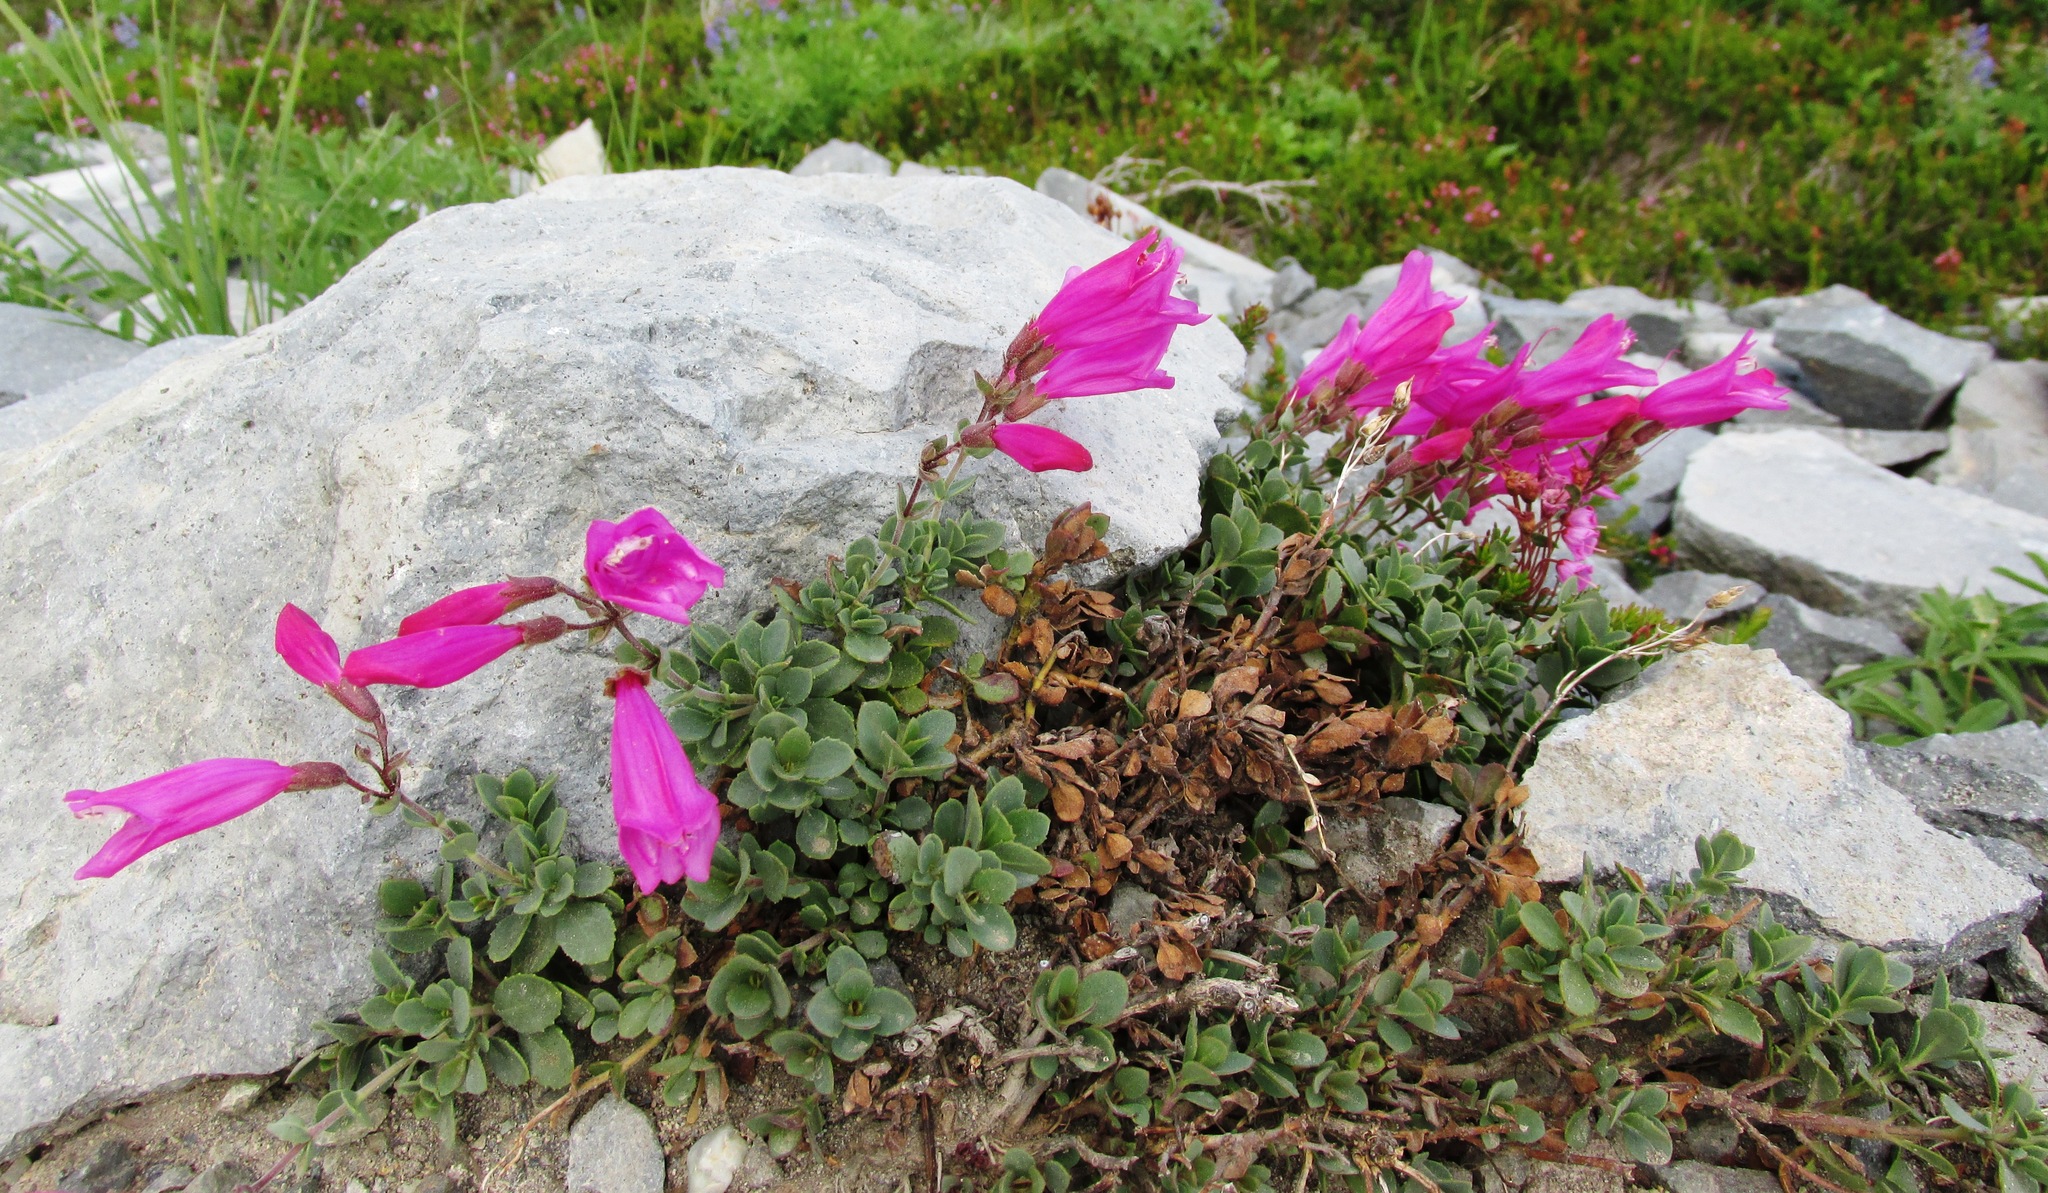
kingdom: Plantae
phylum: Tracheophyta
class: Magnoliopsida
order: Lamiales
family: Plantaginaceae
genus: Penstemon
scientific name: Penstemon rupicola
